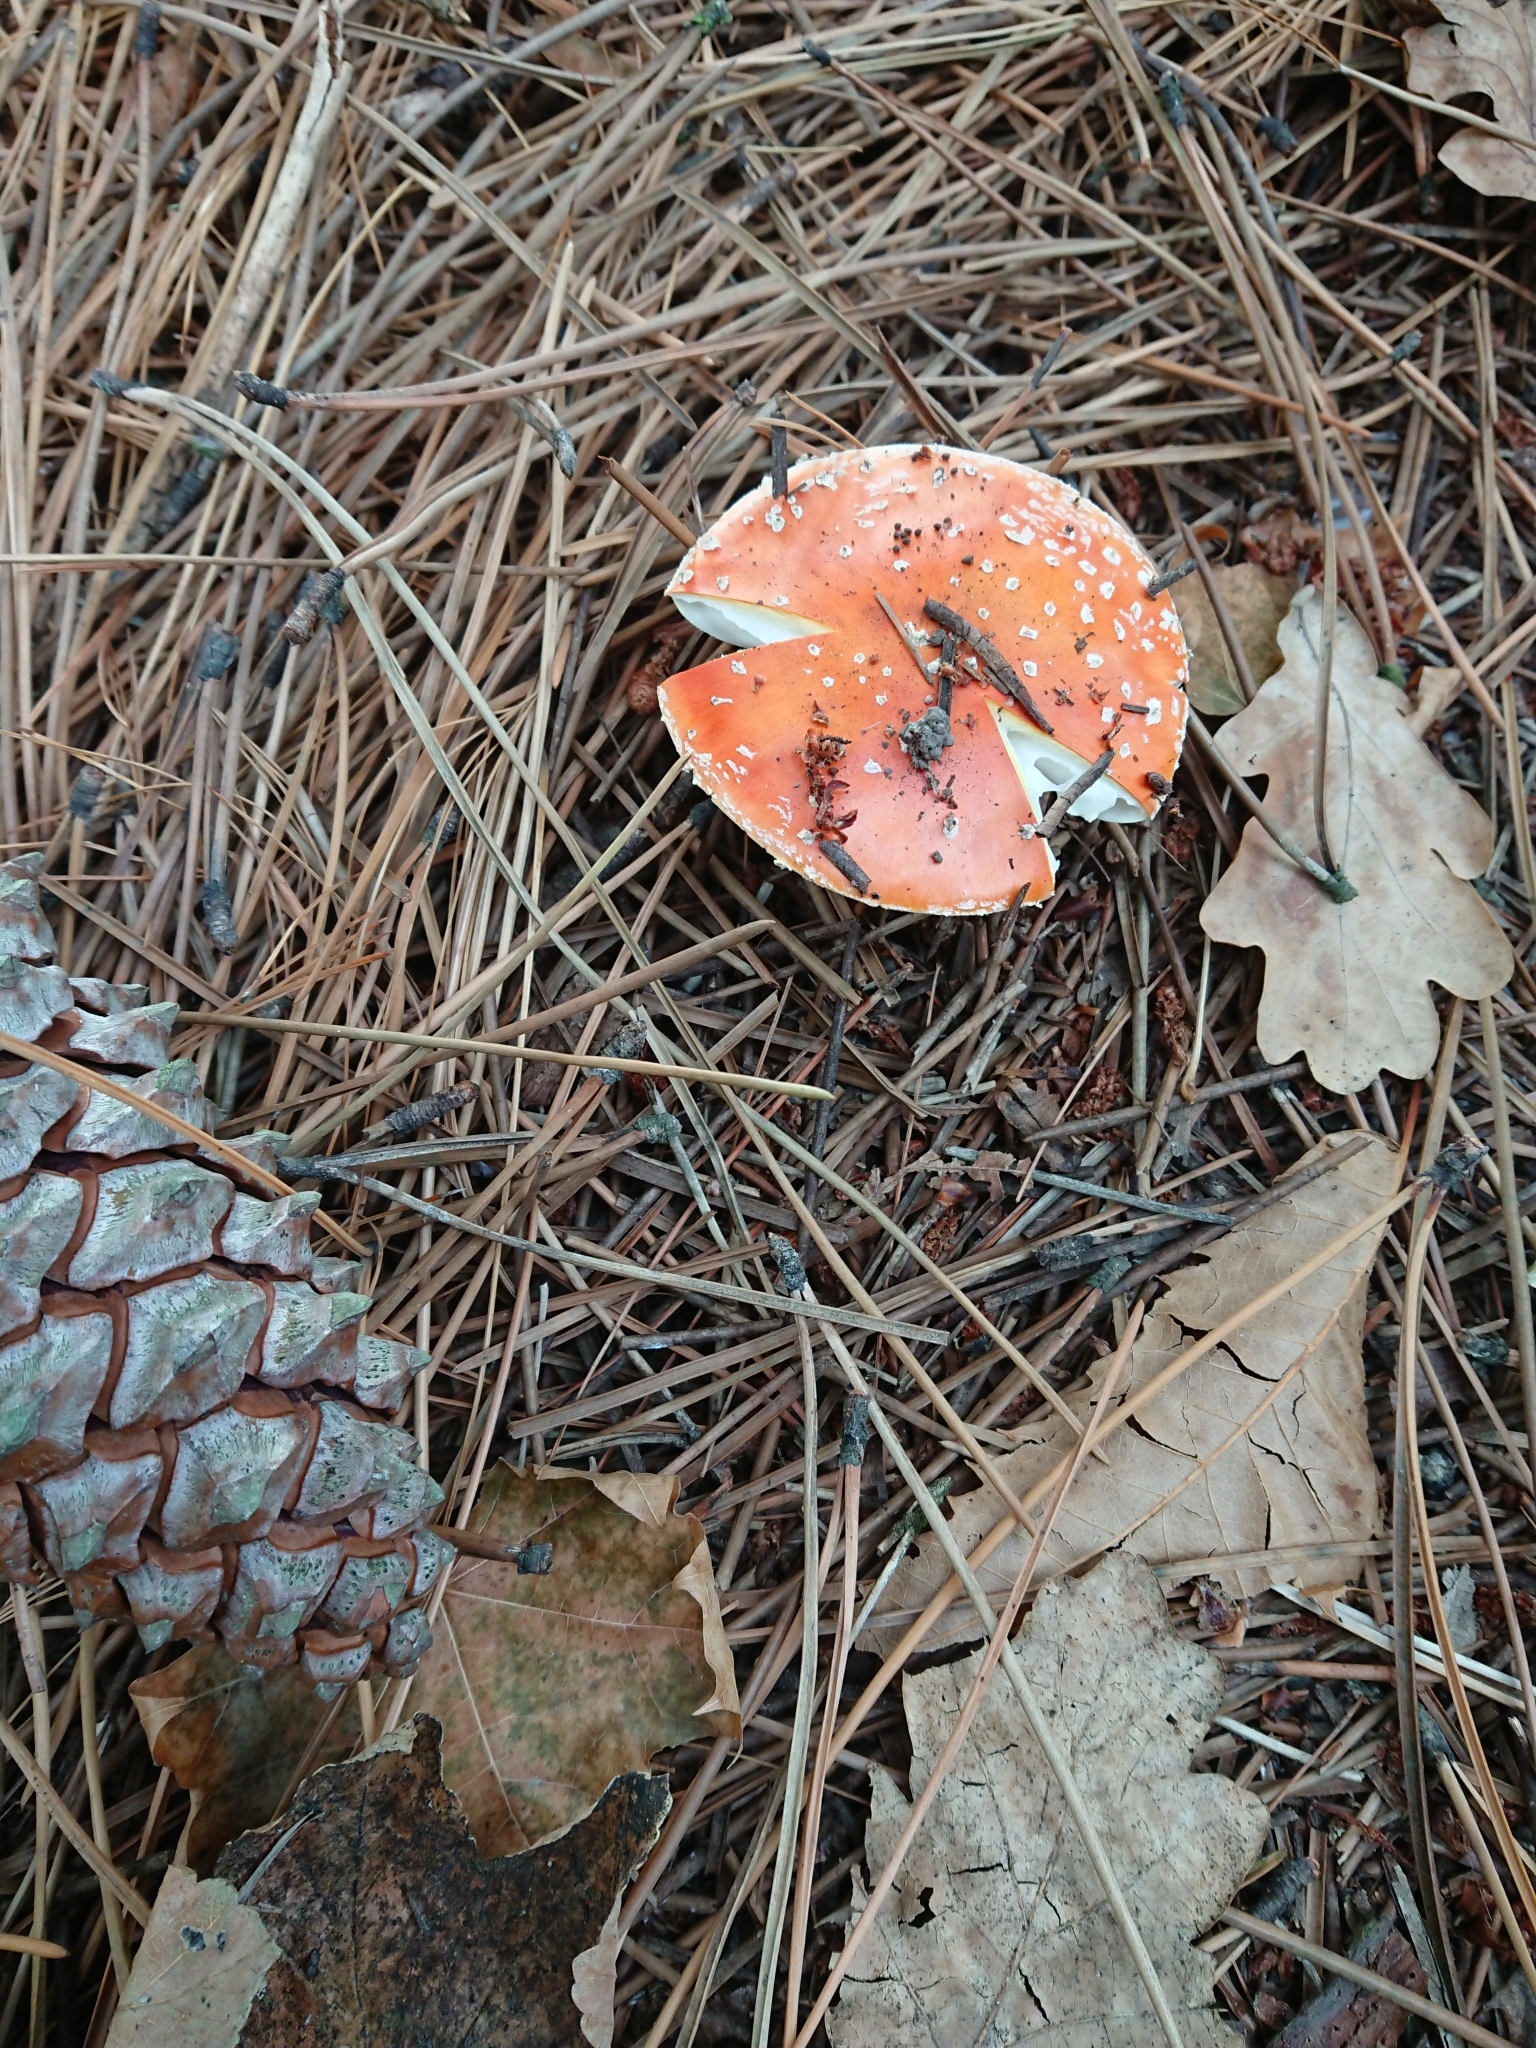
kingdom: Fungi
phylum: Basidiomycota
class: Agaricomycetes
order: Agaricales
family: Amanitaceae
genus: Amanita
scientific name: Amanita muscaria
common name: Fly agaric
